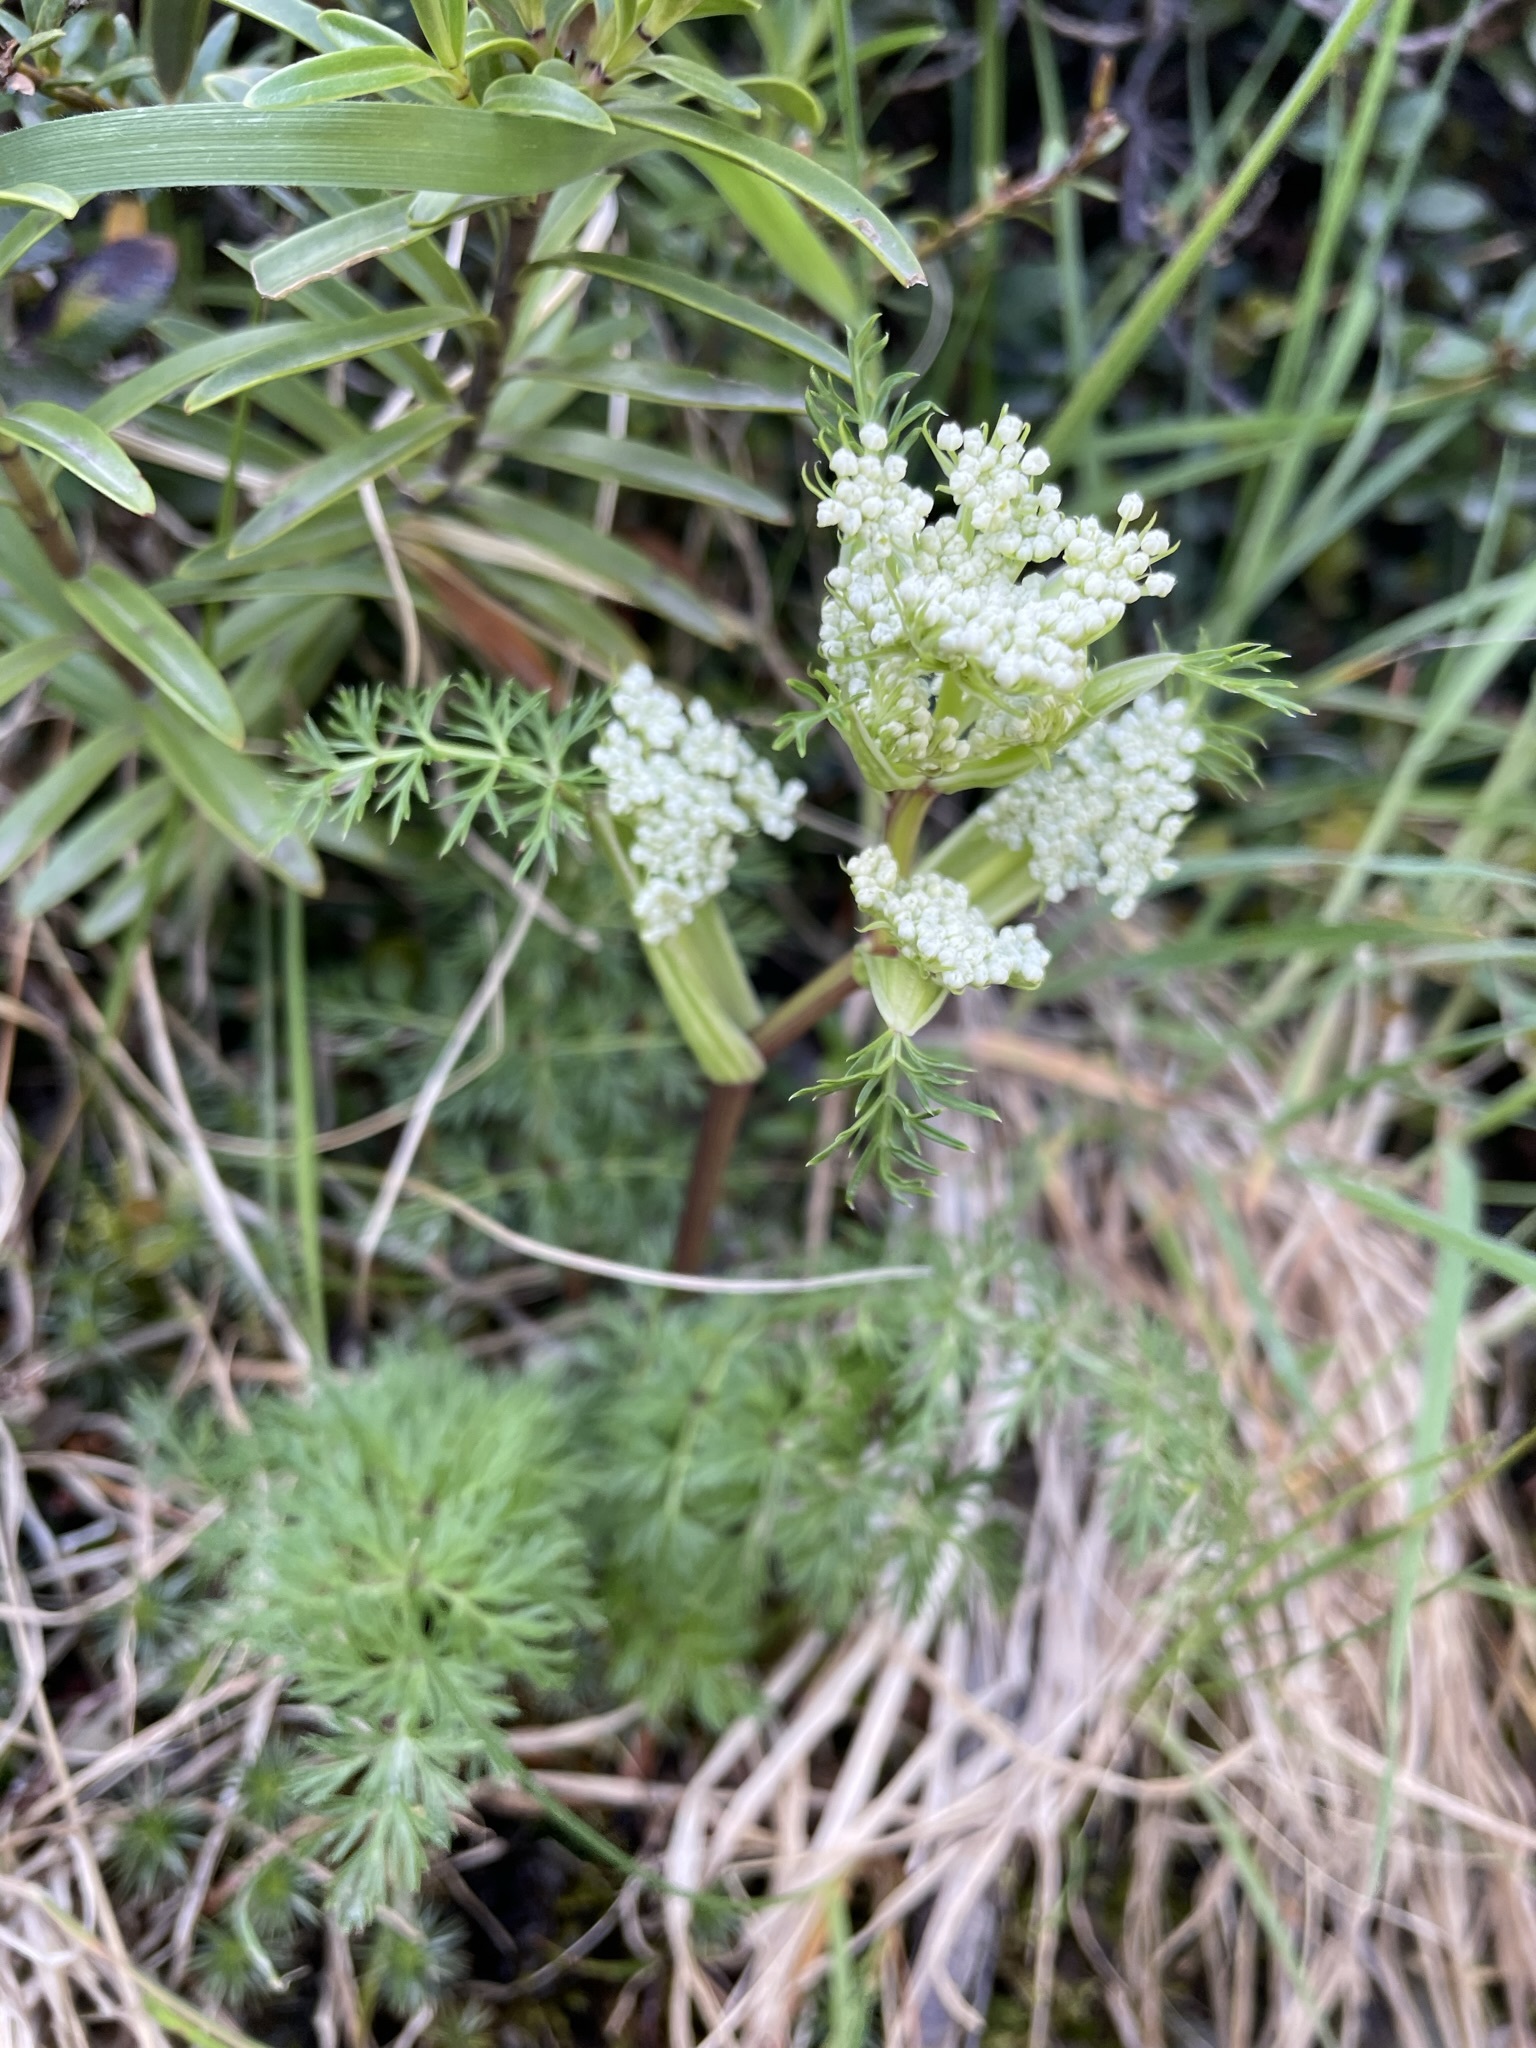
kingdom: Plantae
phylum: Tracheophyta
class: Magnoliopsida
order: Apiales
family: Apiaceae
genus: Anisotome
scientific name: Anisotome haastii
